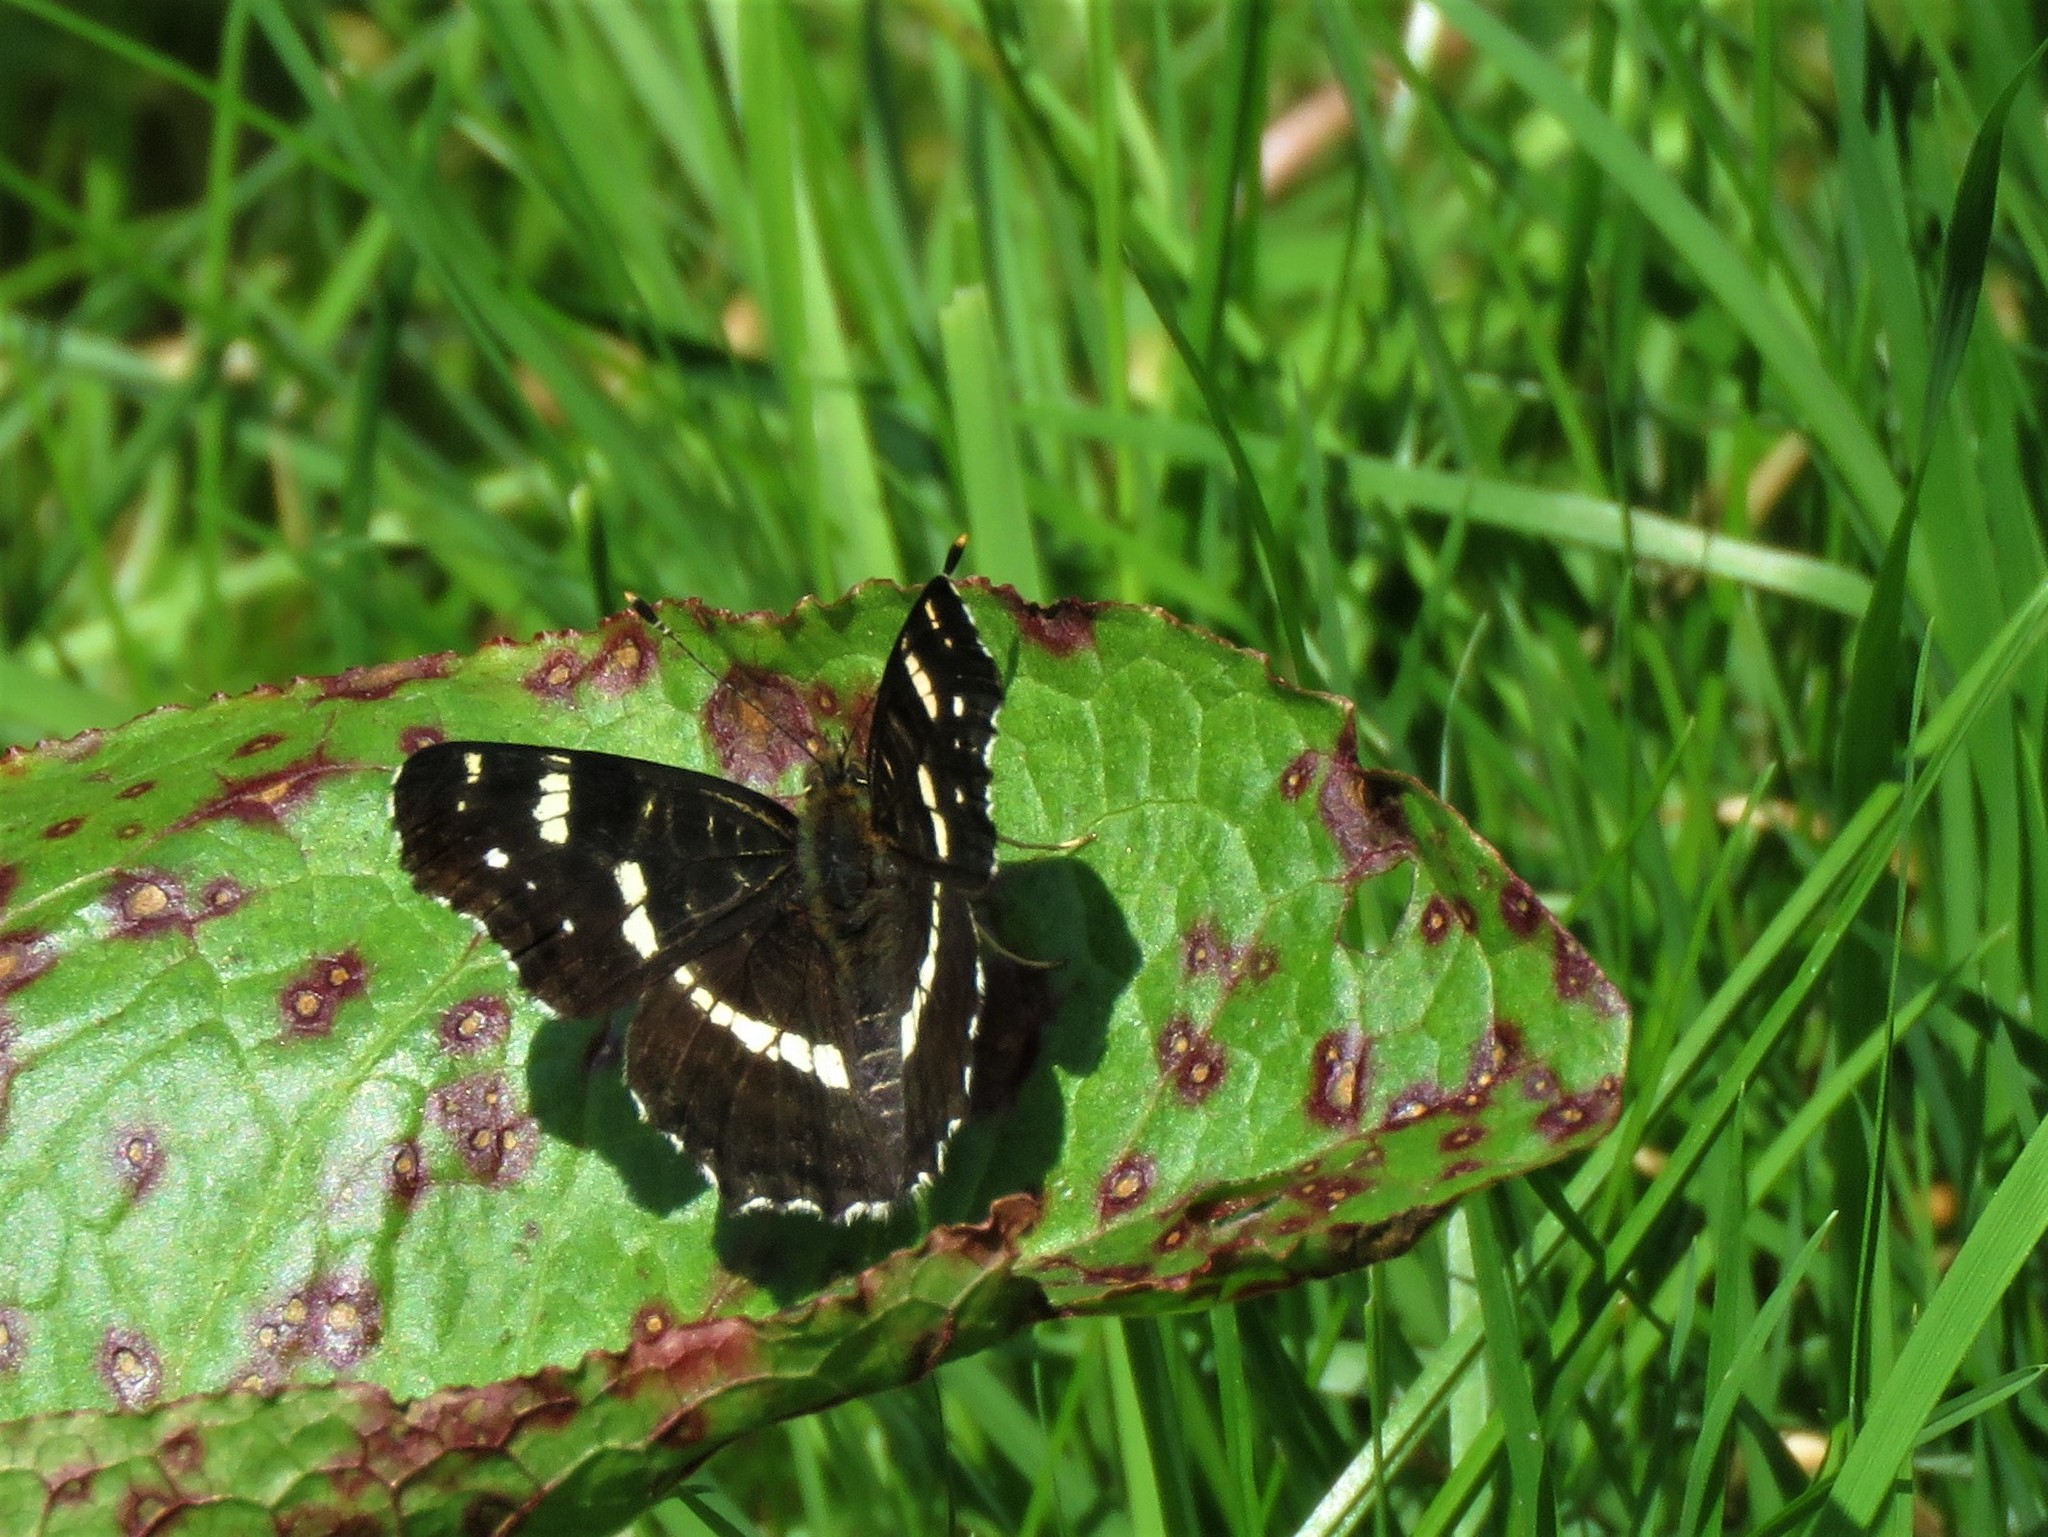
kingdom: Animalia
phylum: Arthropoda
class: Insecta
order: Lepidoptera
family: Nymphalidae
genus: Araschnia
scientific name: Araschnia levana
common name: Map butterfly
